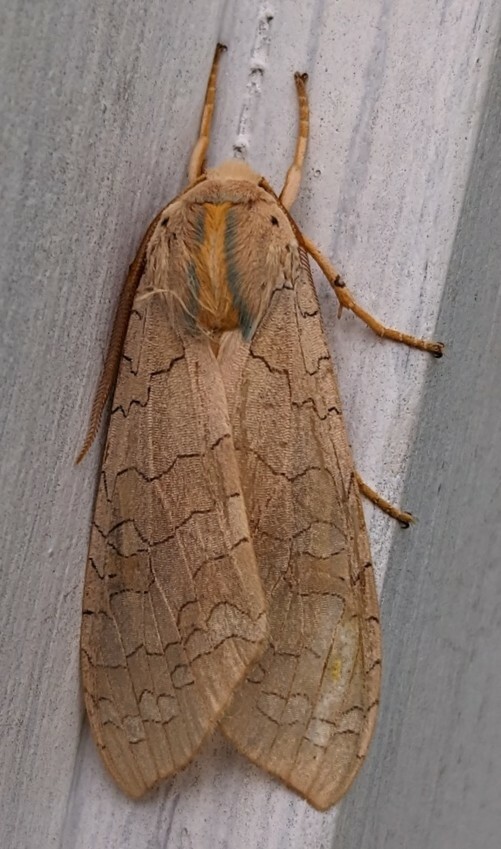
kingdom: Animalia
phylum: Arthropoda
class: Insecta
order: Lepidoptera
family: Erebidae
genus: Halysidota
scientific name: Halysidota tessellaris
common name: Banded tussock moth
